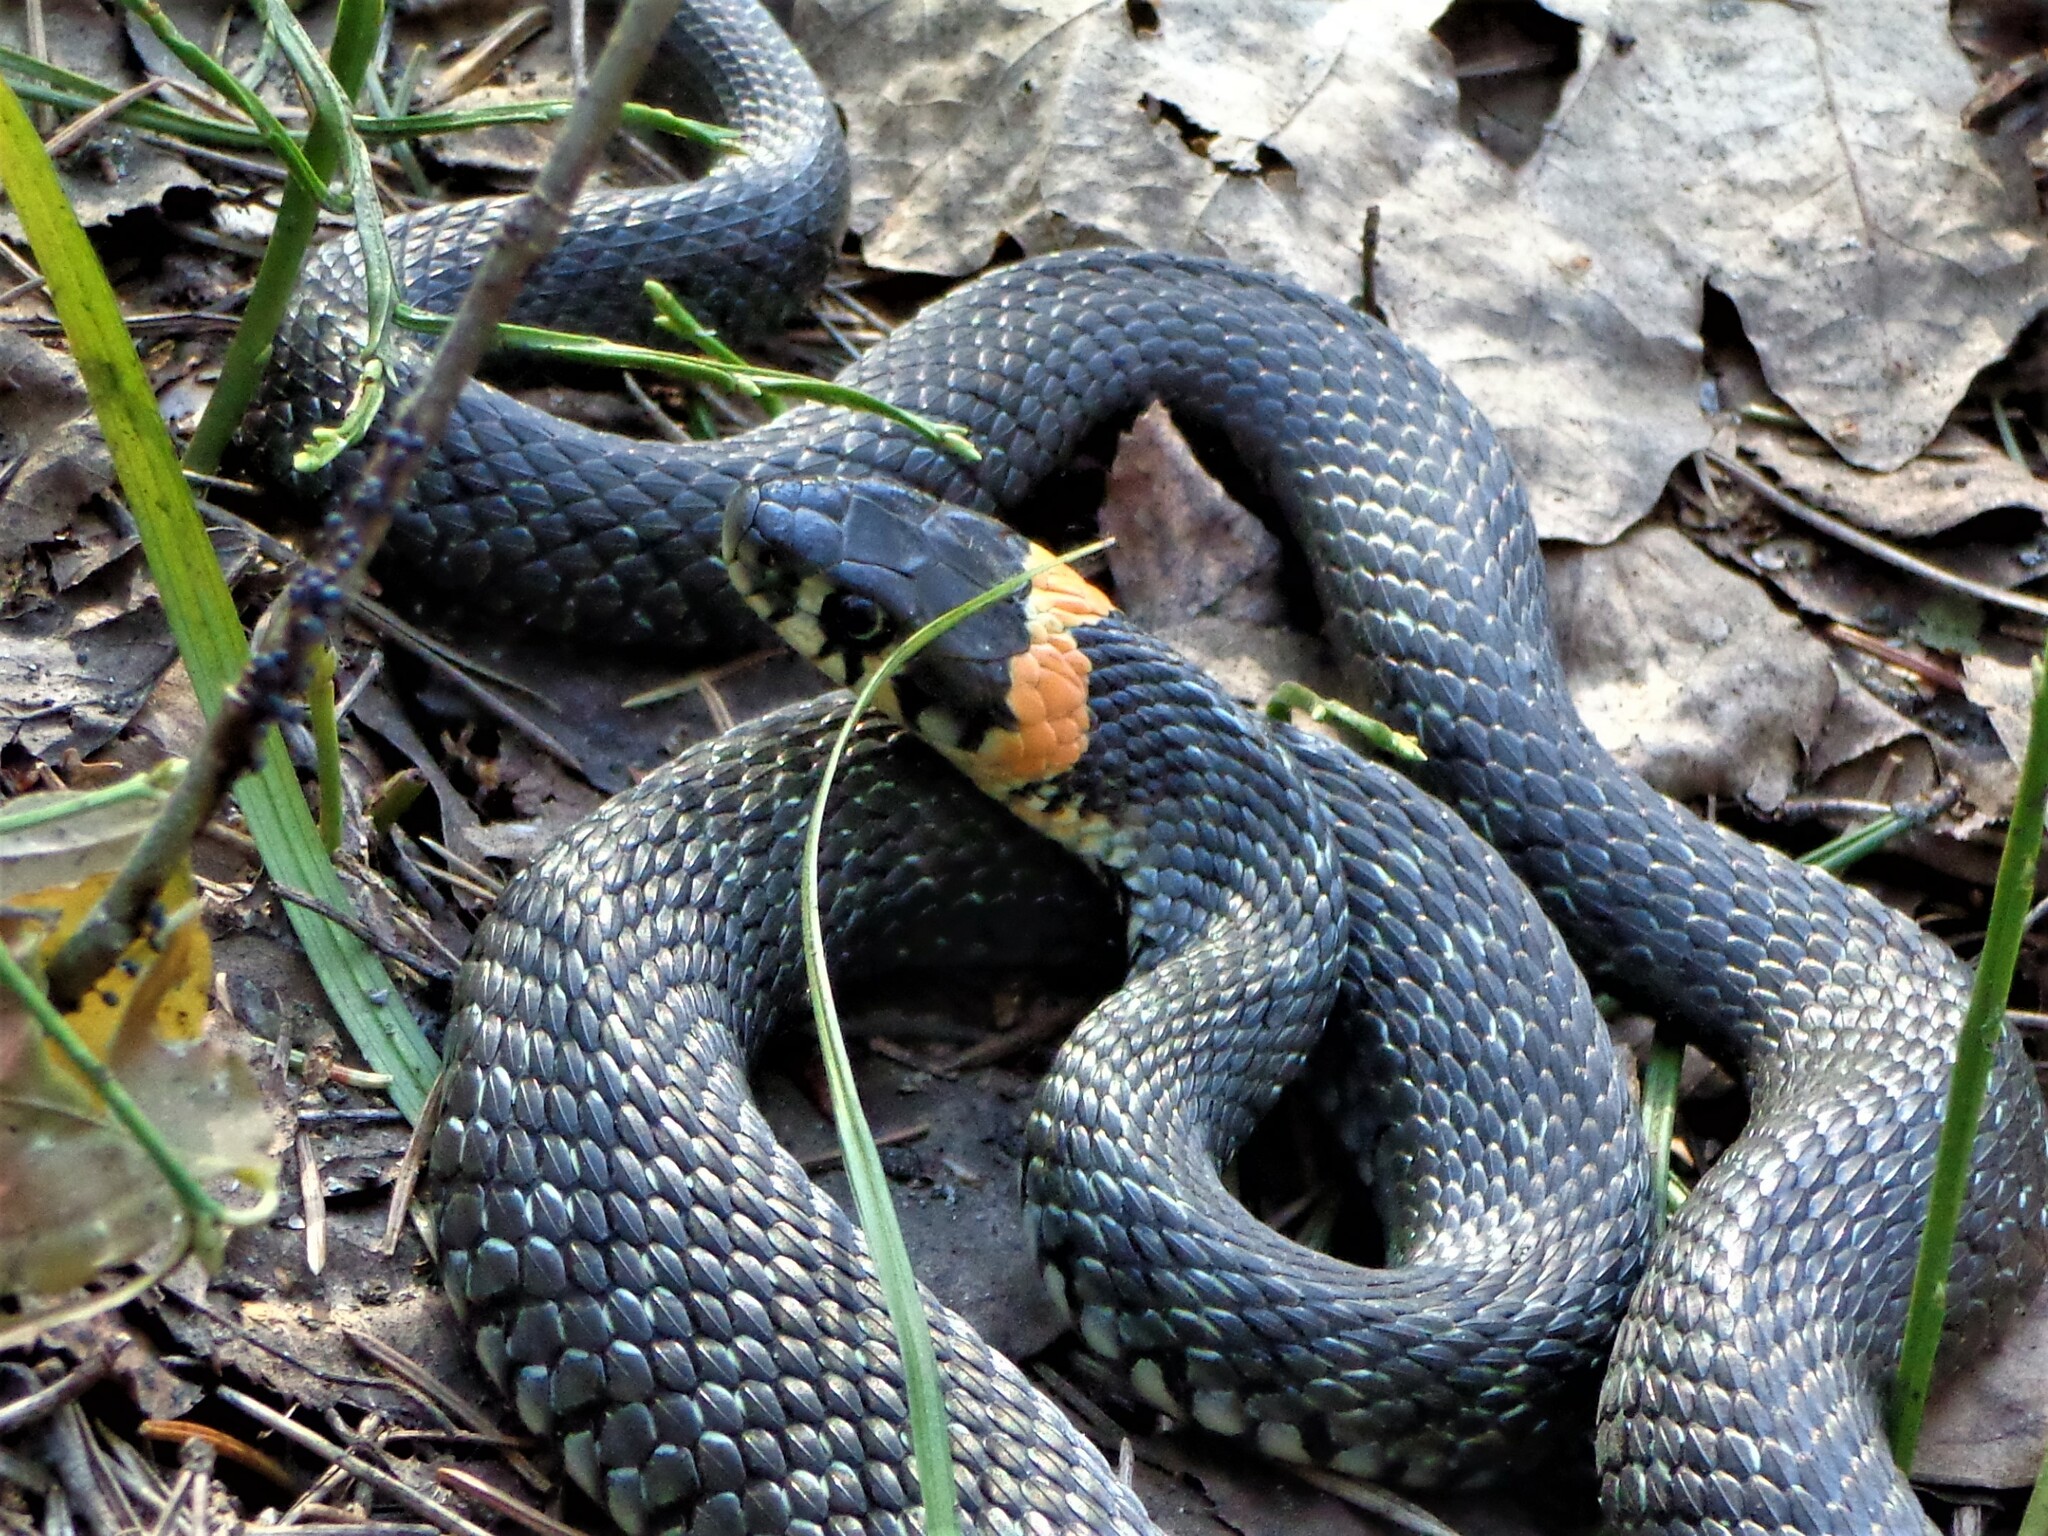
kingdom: Animalia
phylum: Chordata
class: Squamata
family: Colubridae
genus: Natrix
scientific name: Natrix natrix
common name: Grass snake
